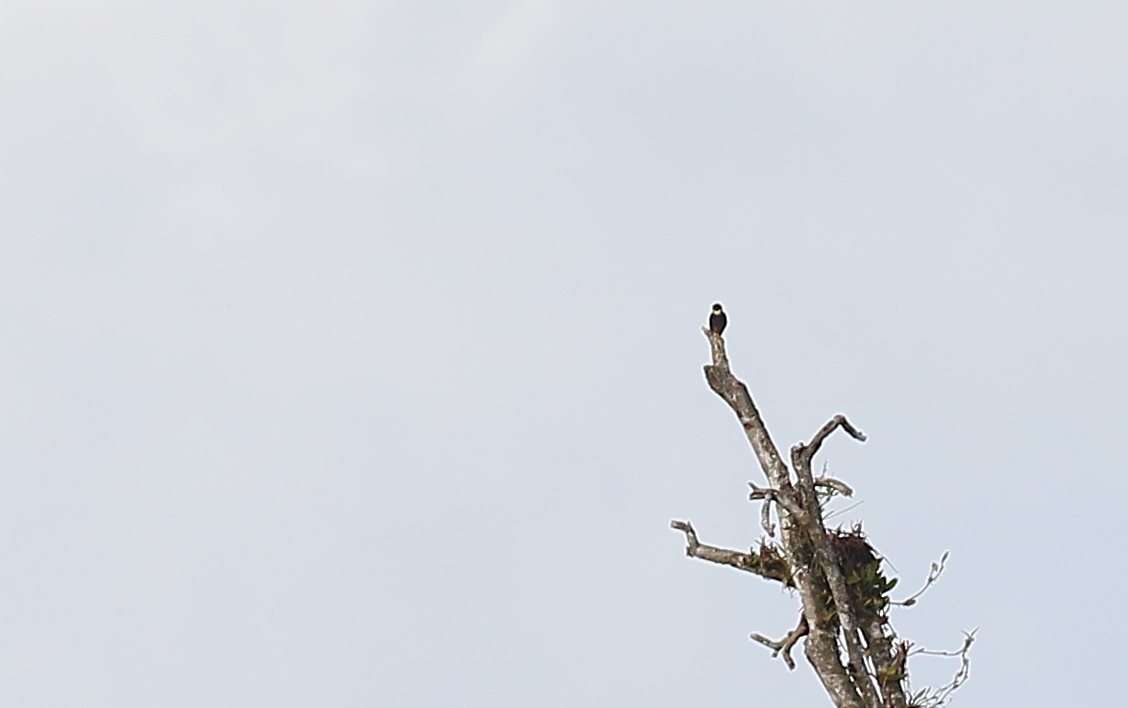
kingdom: Animalia
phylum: Chordata
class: Aves
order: Falconiformes
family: Falconidae
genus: Falco
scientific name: Falco rufigularis
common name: Bat falcon
